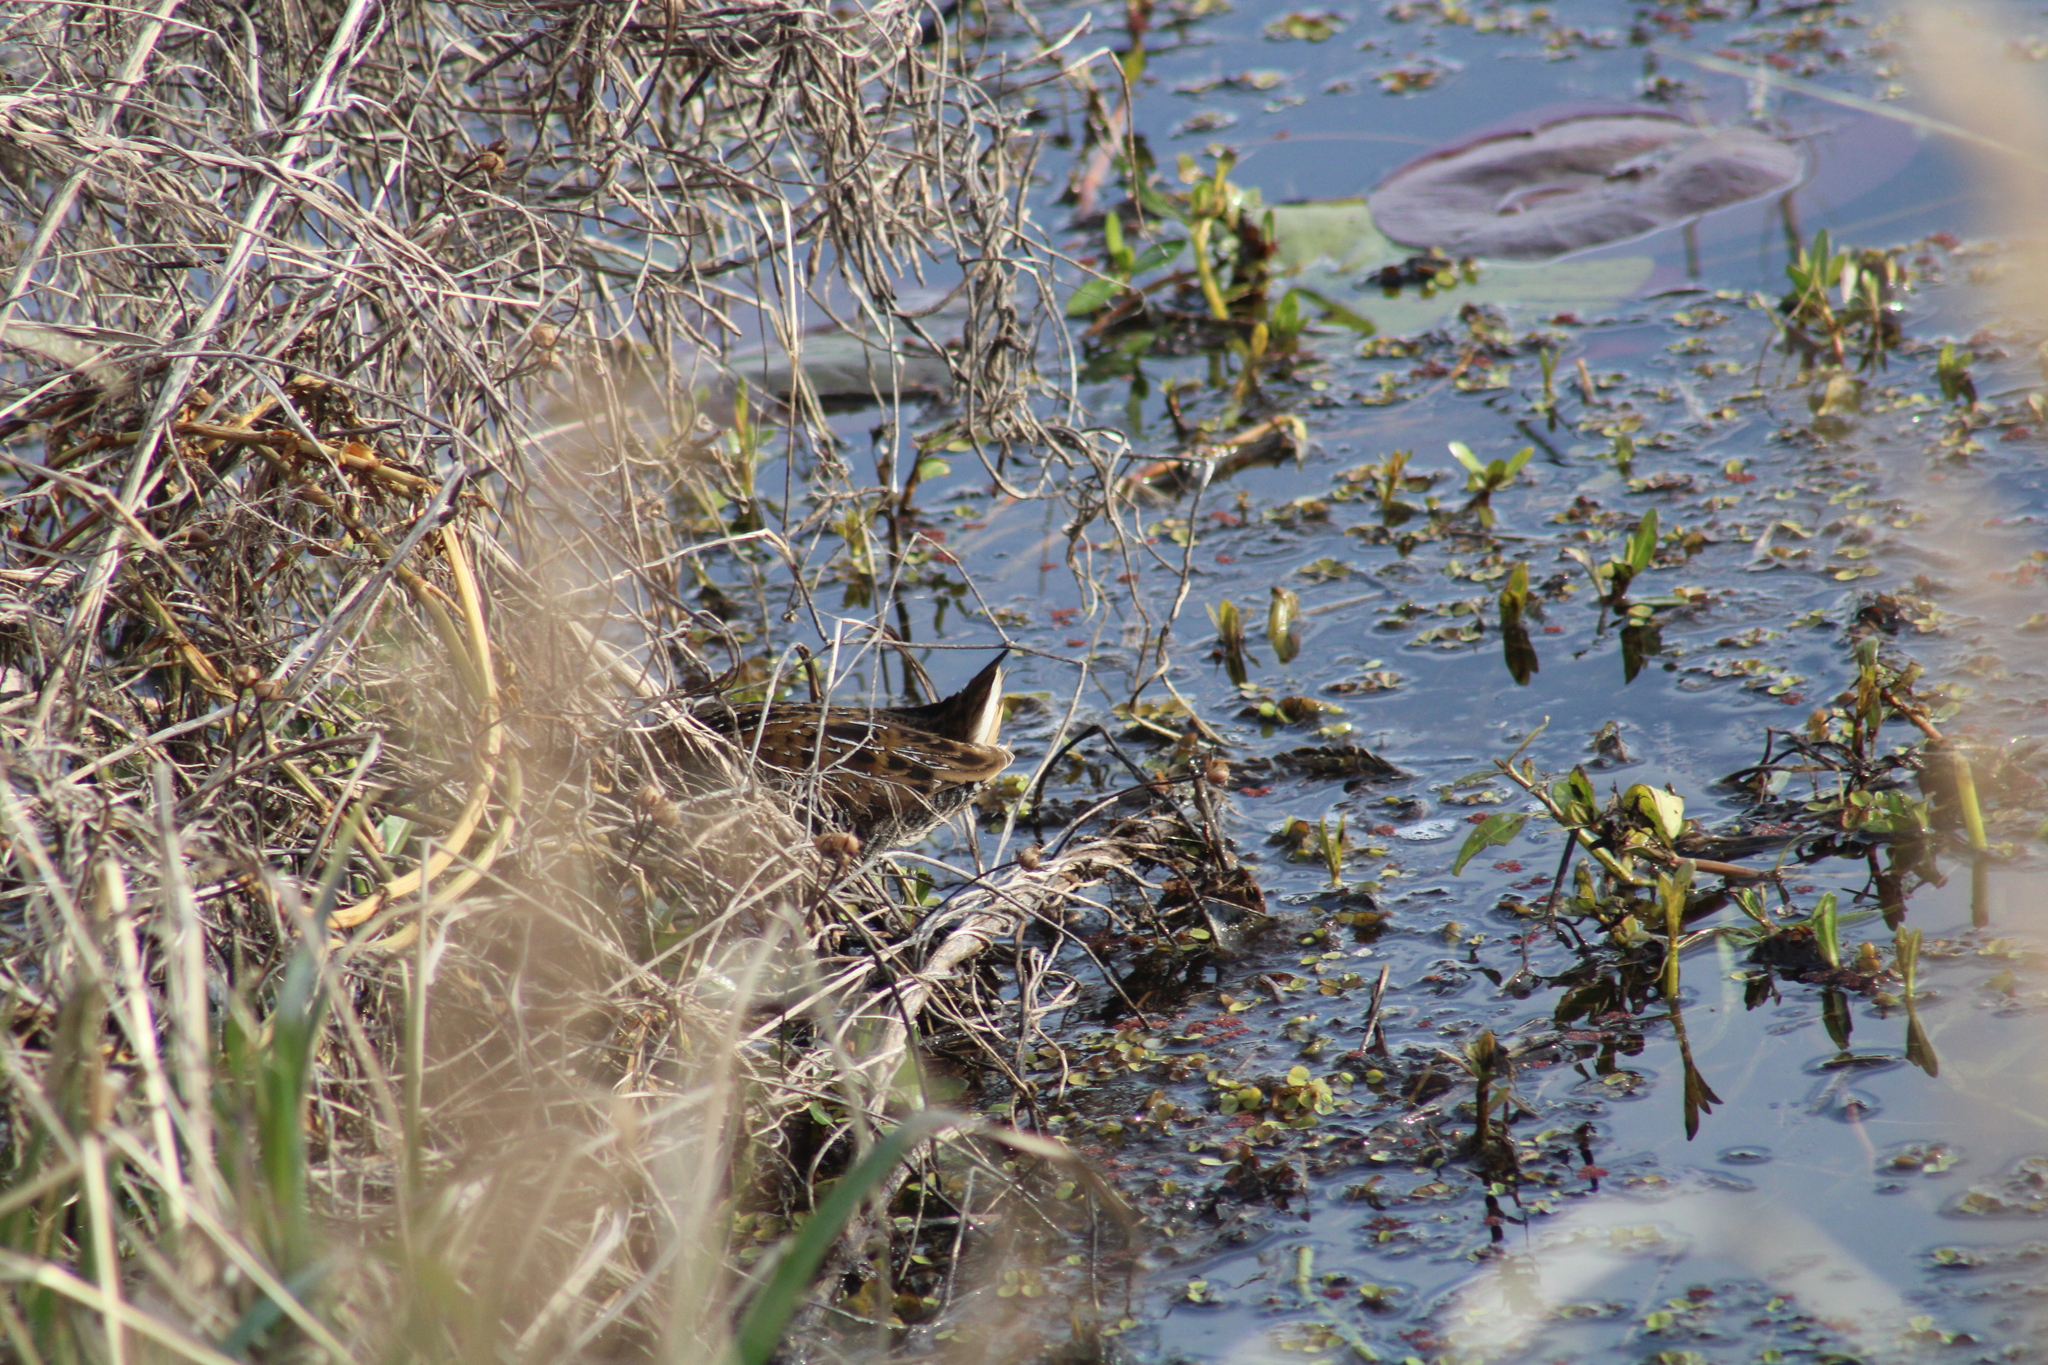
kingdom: Animalia
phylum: Chordata
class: Aves
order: Gruiformes
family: Rallidae
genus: Porzana
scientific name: Porzana carolina
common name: Sora
